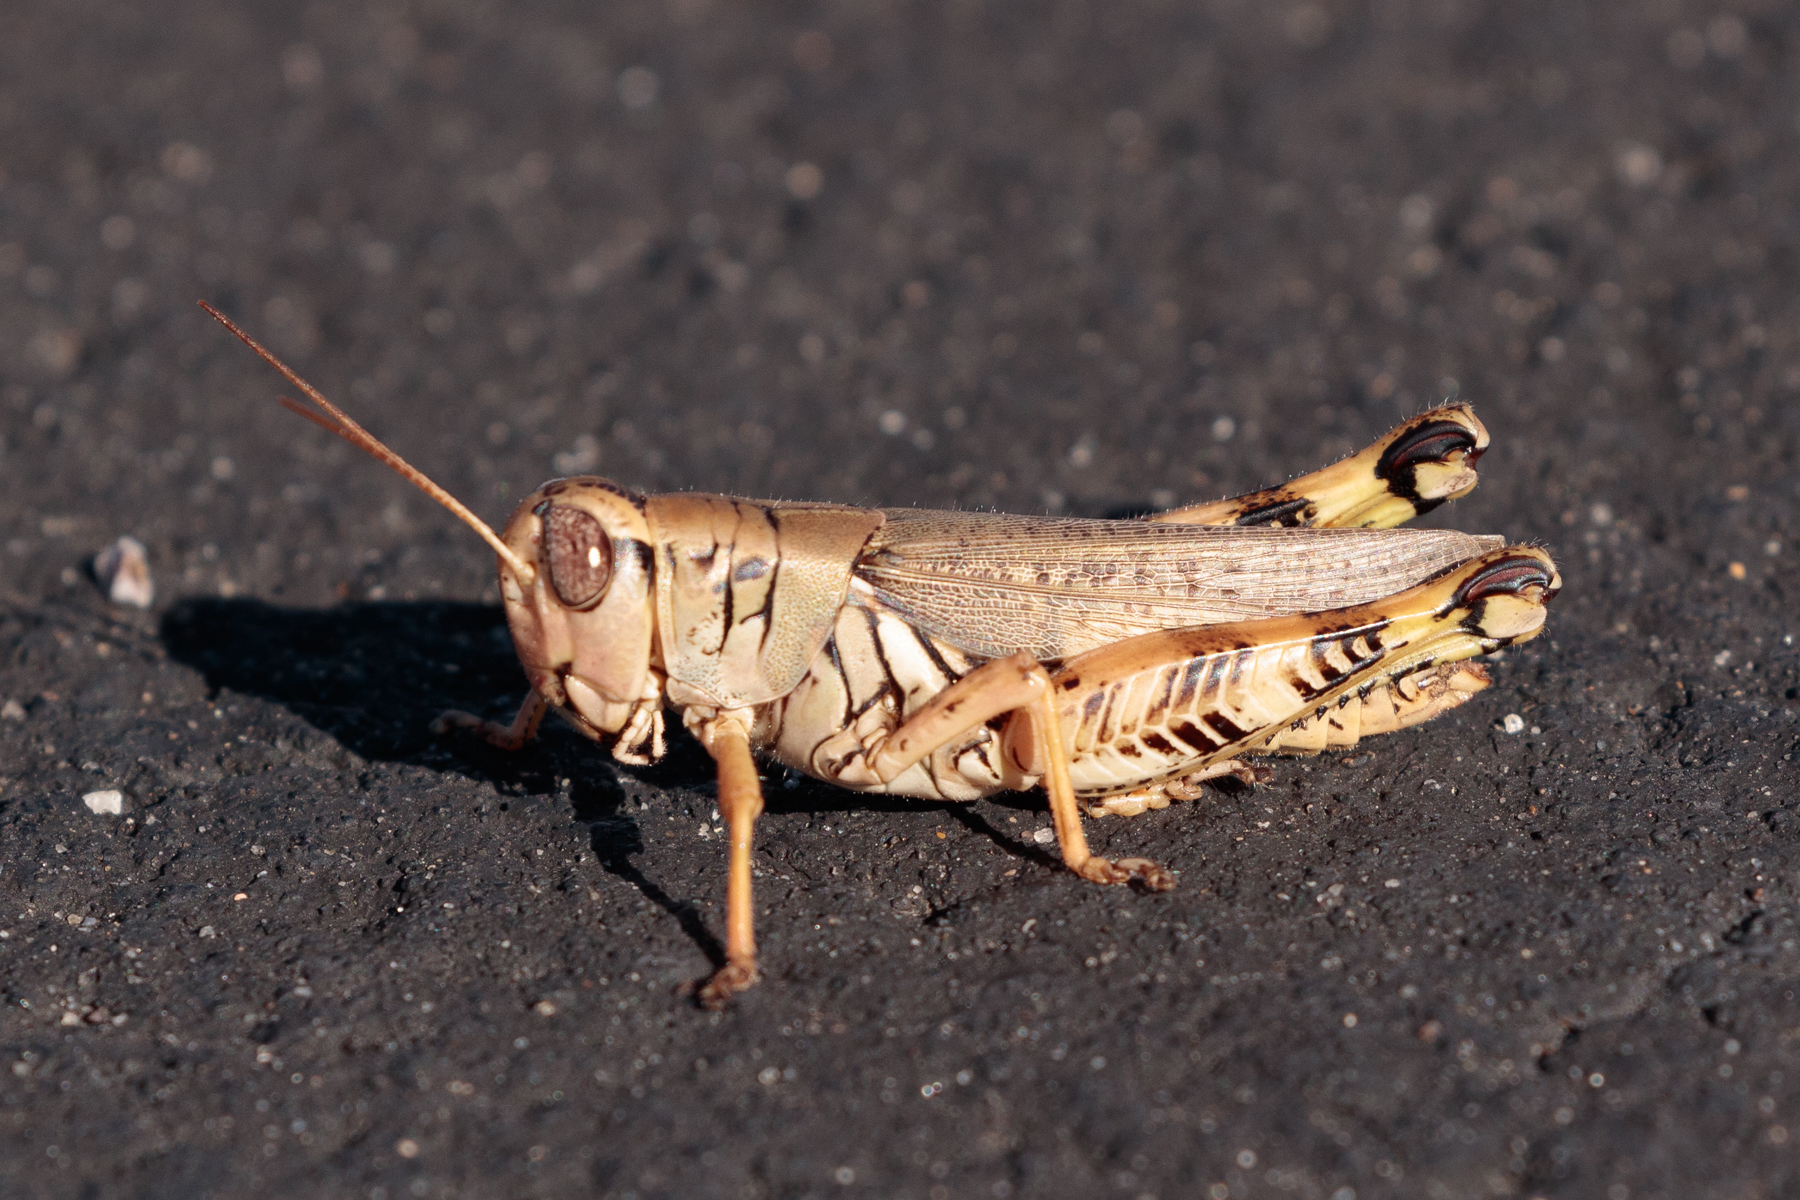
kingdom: Animalia
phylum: Arthropoda
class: Insecta
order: Orthoptera
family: Acrididae
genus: Melanoplus
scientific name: Melanoplus ponderosus
